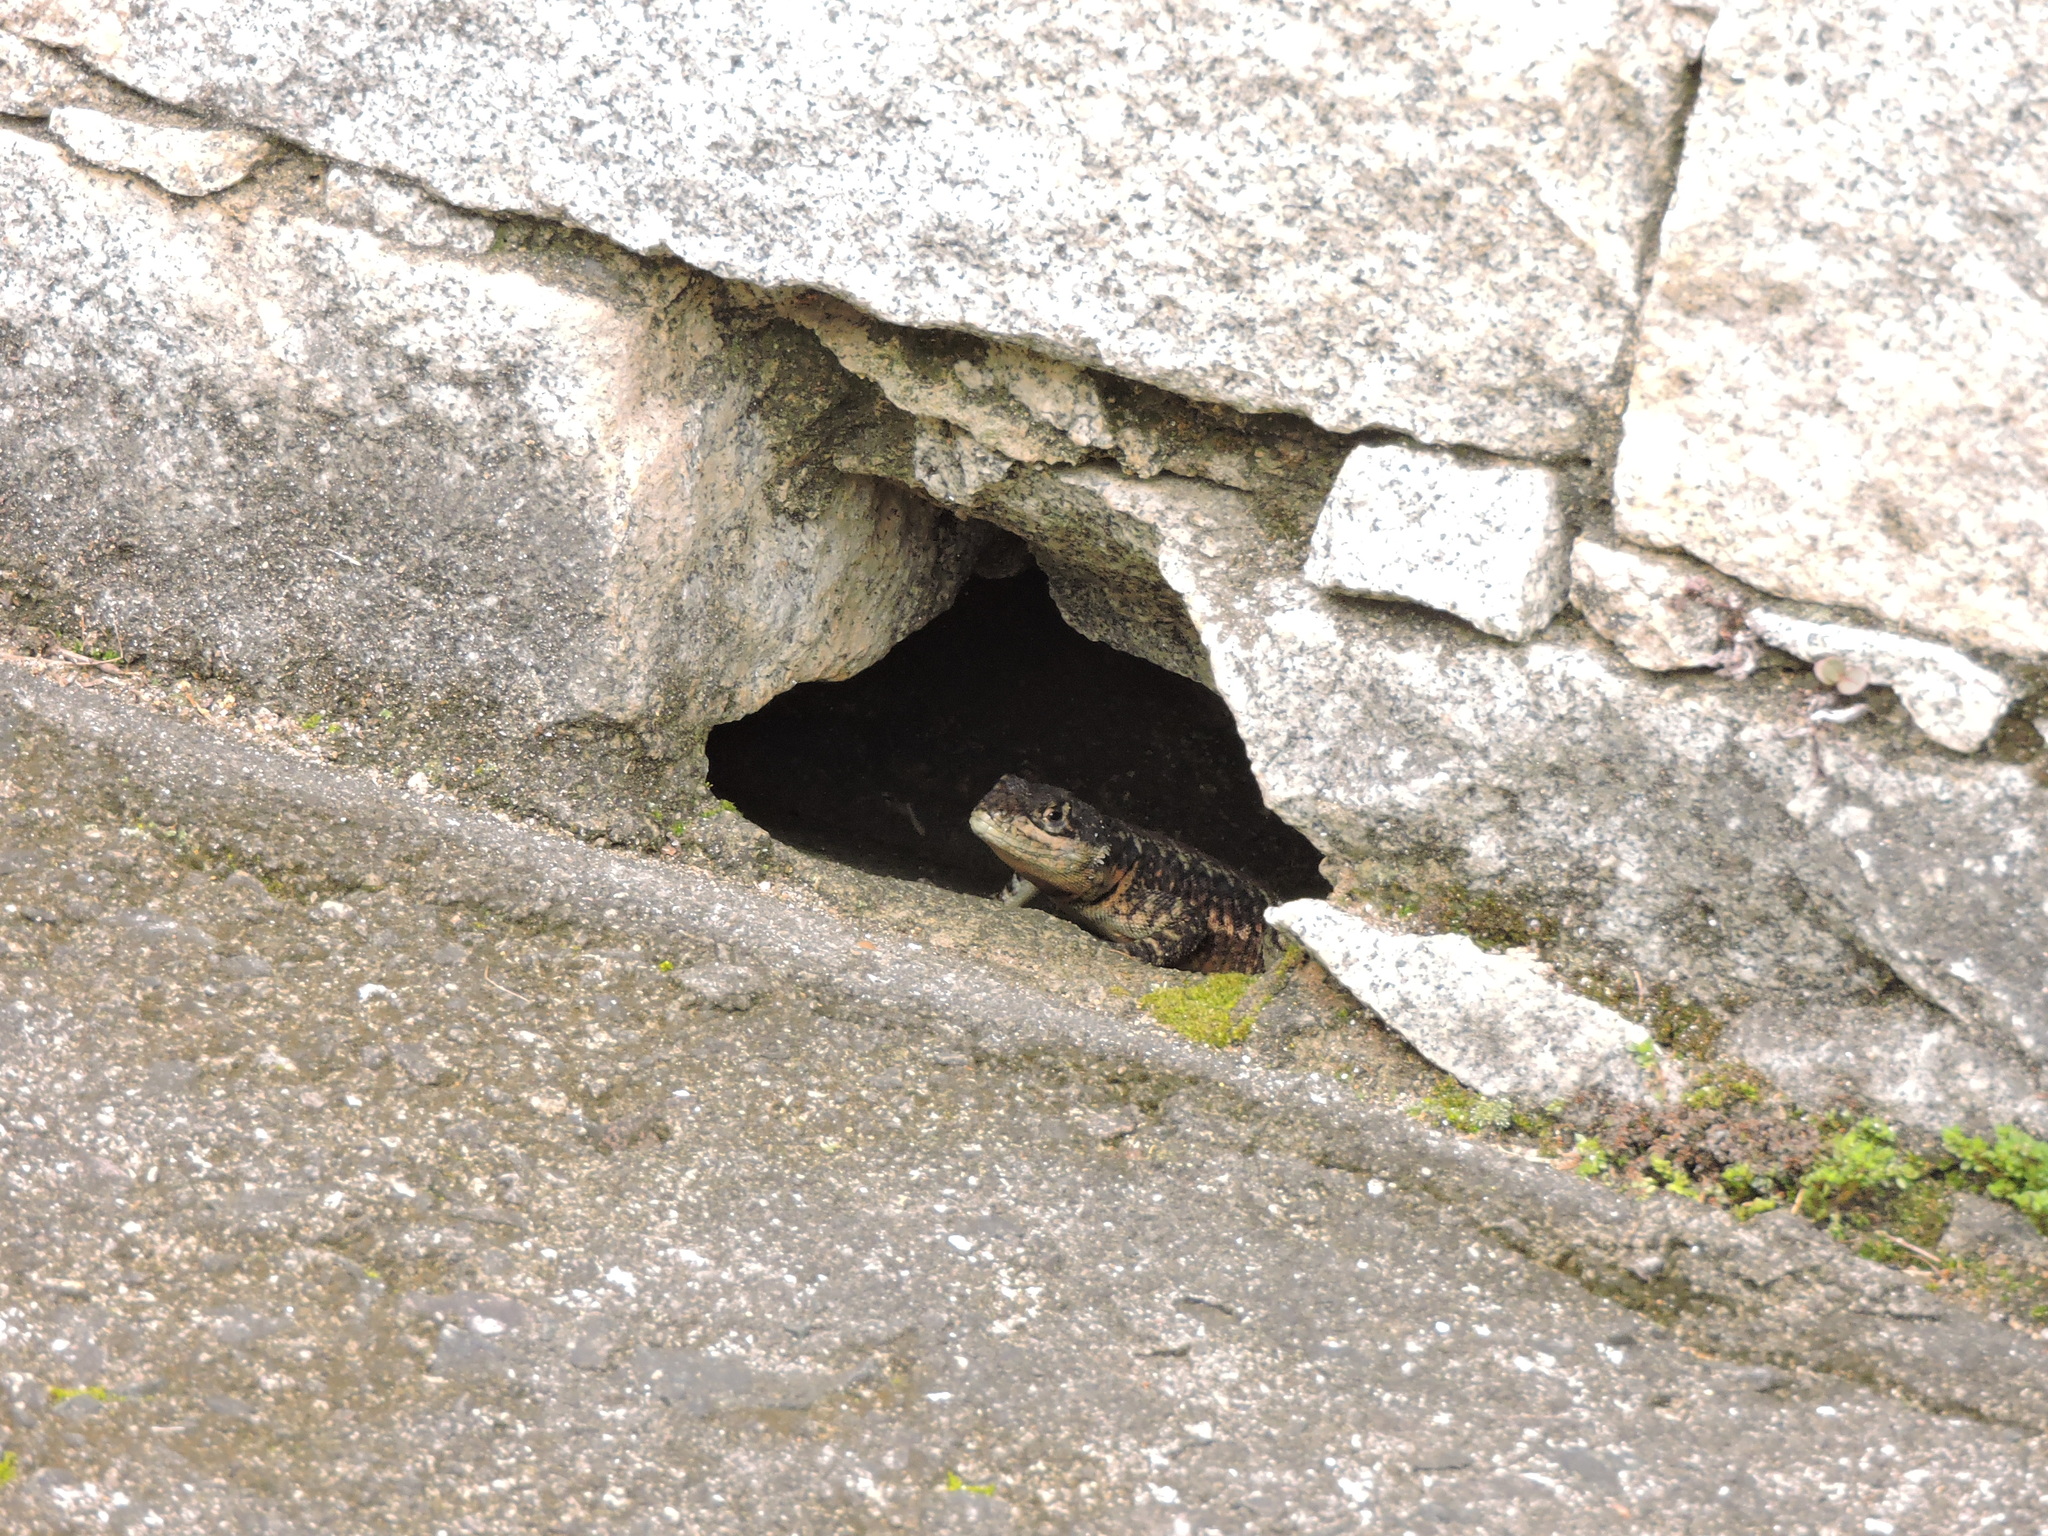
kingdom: Animalia
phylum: Chordata
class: Squamata
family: Tropiduridae
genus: Tropidurus
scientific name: Tropidurus torquatus
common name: Amazon lava lizard
